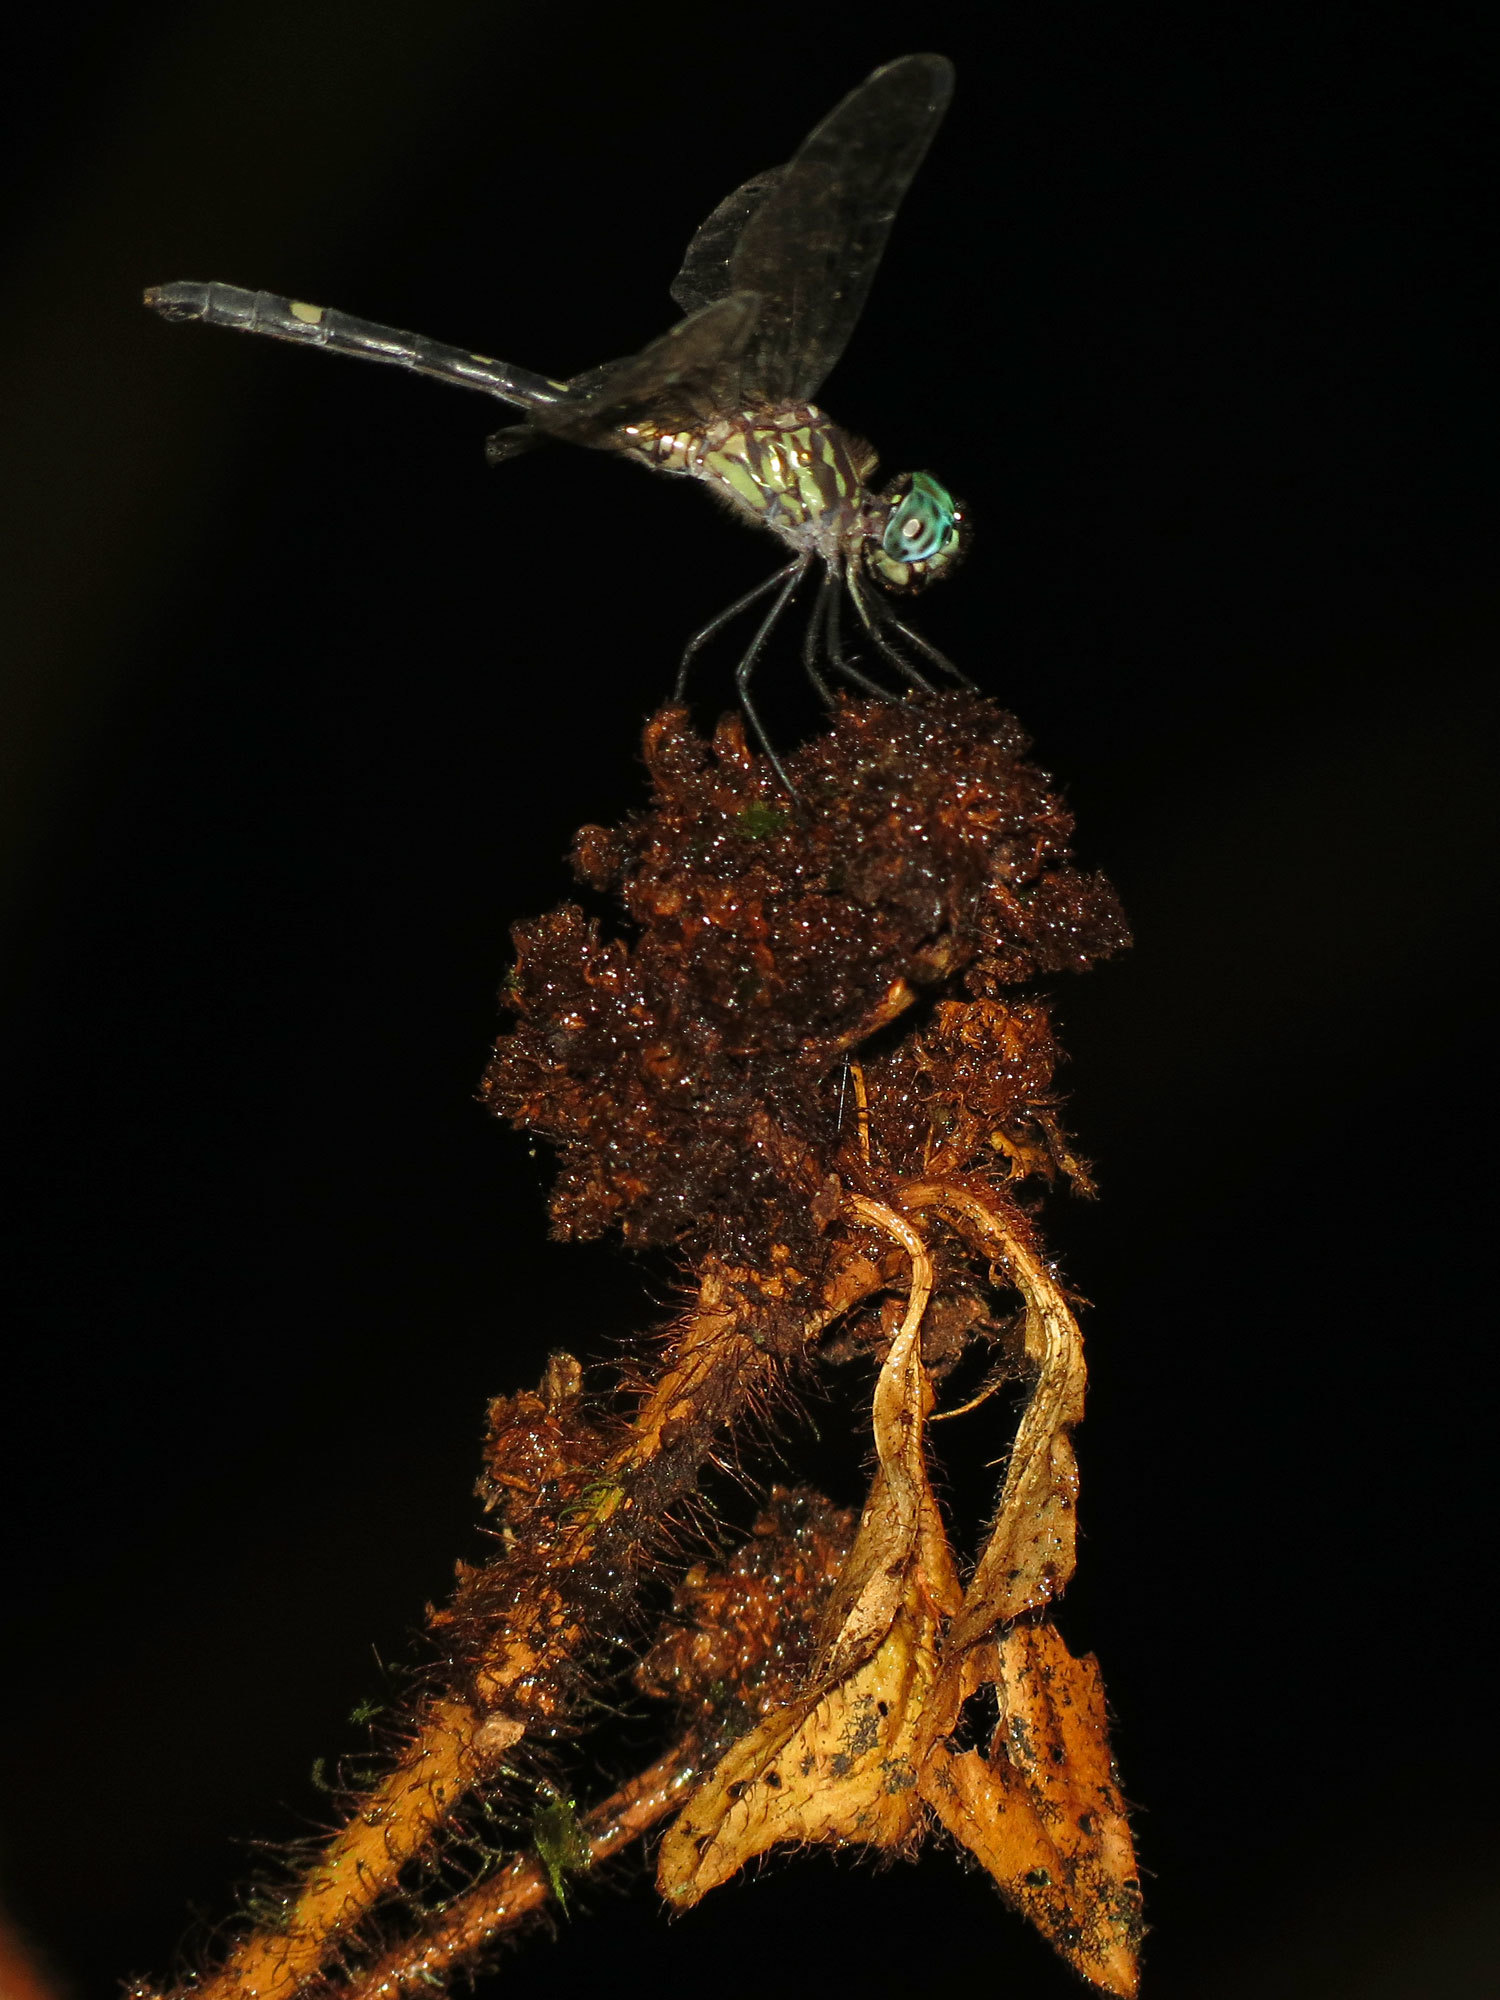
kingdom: Animalia
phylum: Arthropoda
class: Insecta
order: Odonata
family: Libellulidae
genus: Dythemis
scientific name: Dythemis sterilis
